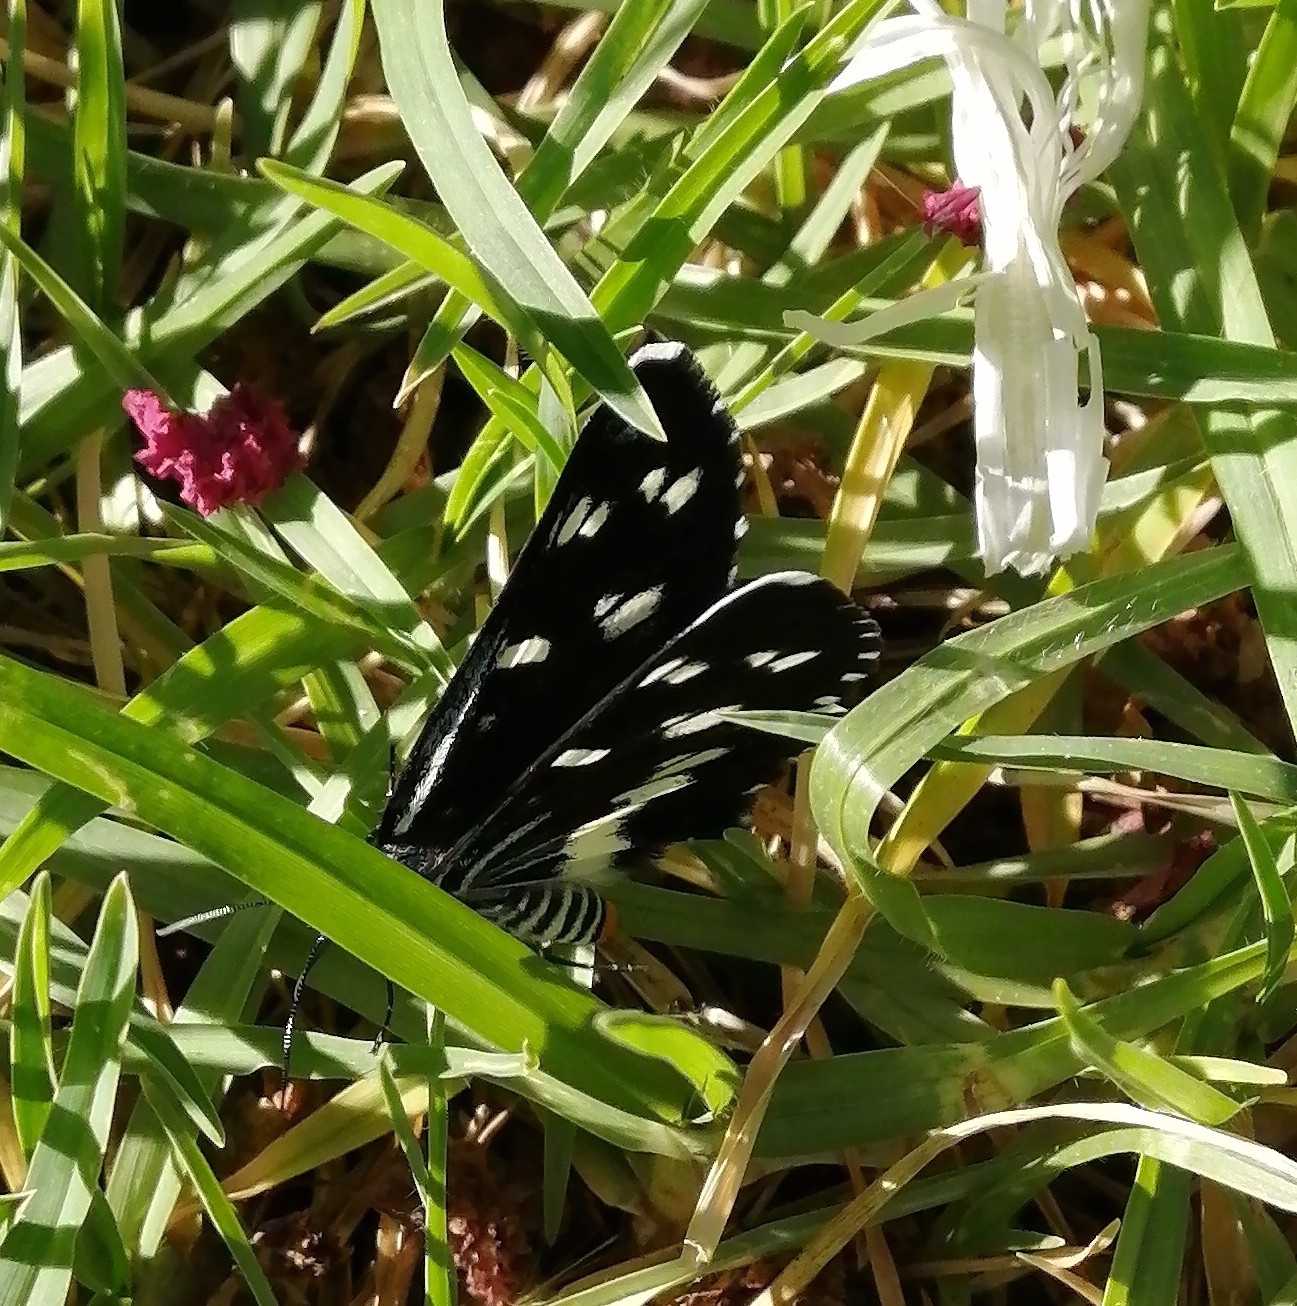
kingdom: Animalia
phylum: Arthropoda
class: Insecta
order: Lepidoptera
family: Noctuidae
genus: Cruria
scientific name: Cruria donowani
